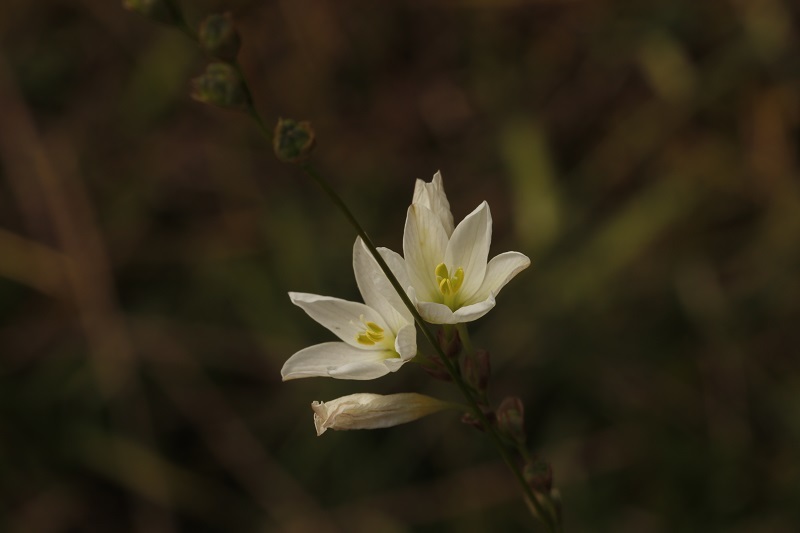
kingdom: Plantae
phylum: Tracheophyta
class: Liliopsida
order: Asparagales
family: Iridaceae
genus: Ixia
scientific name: Ixia orientalis
